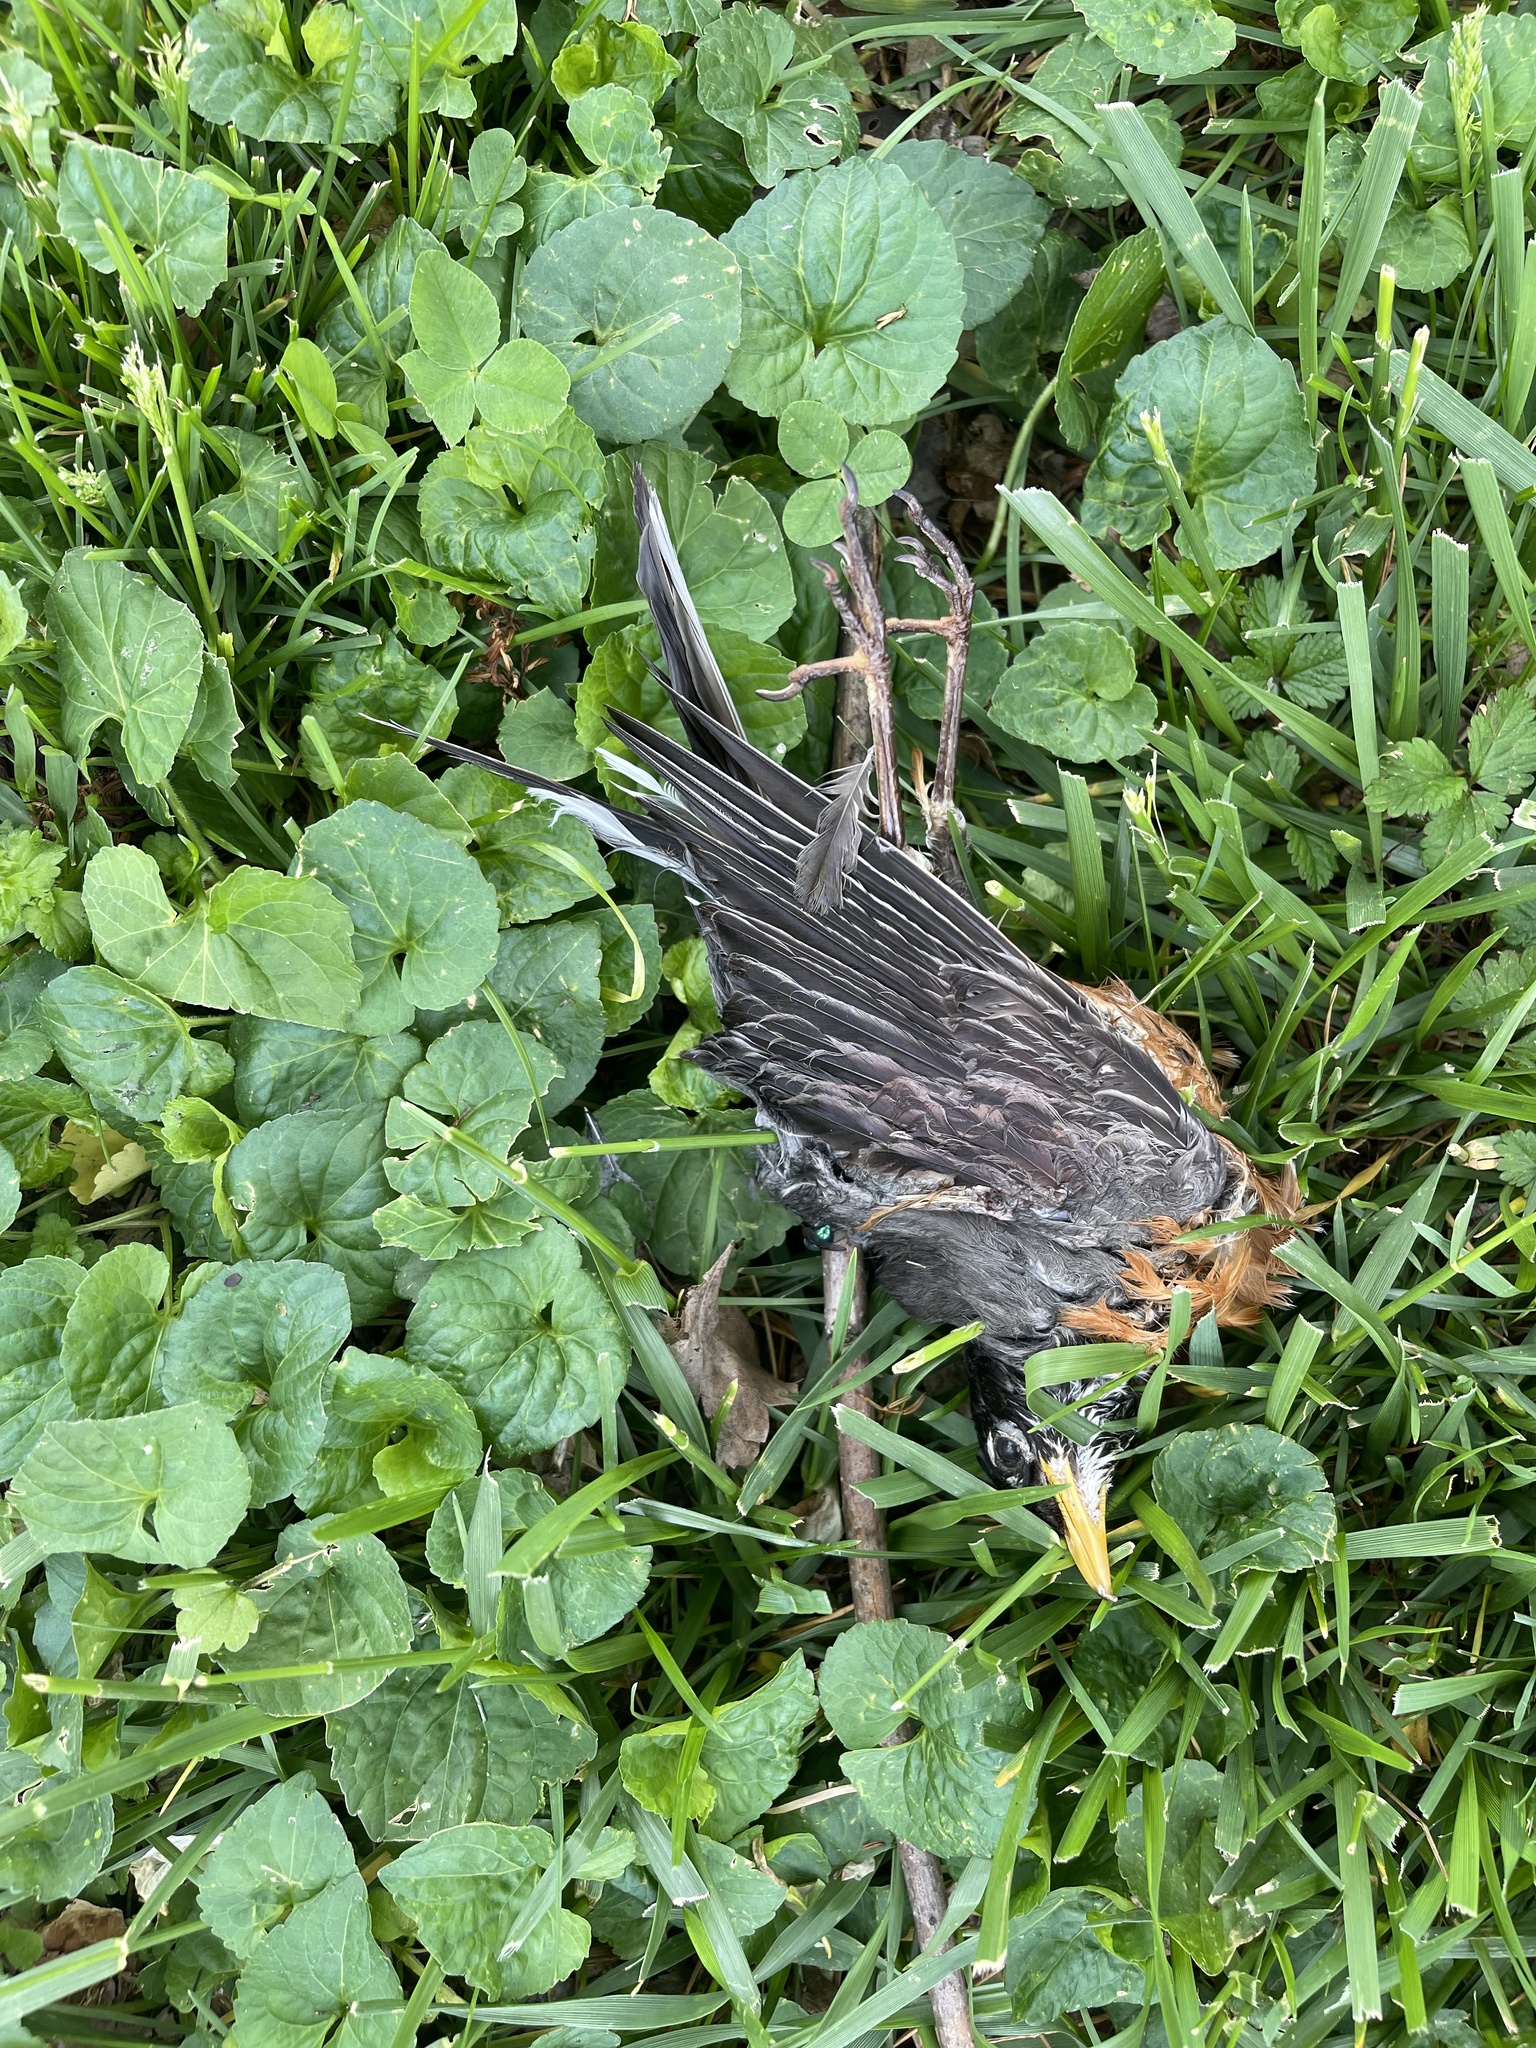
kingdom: Animalia
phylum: Chordata
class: Aves
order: Passeriformes
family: Turdidae
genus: Turdus
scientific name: Turdus migratorius
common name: American robin
